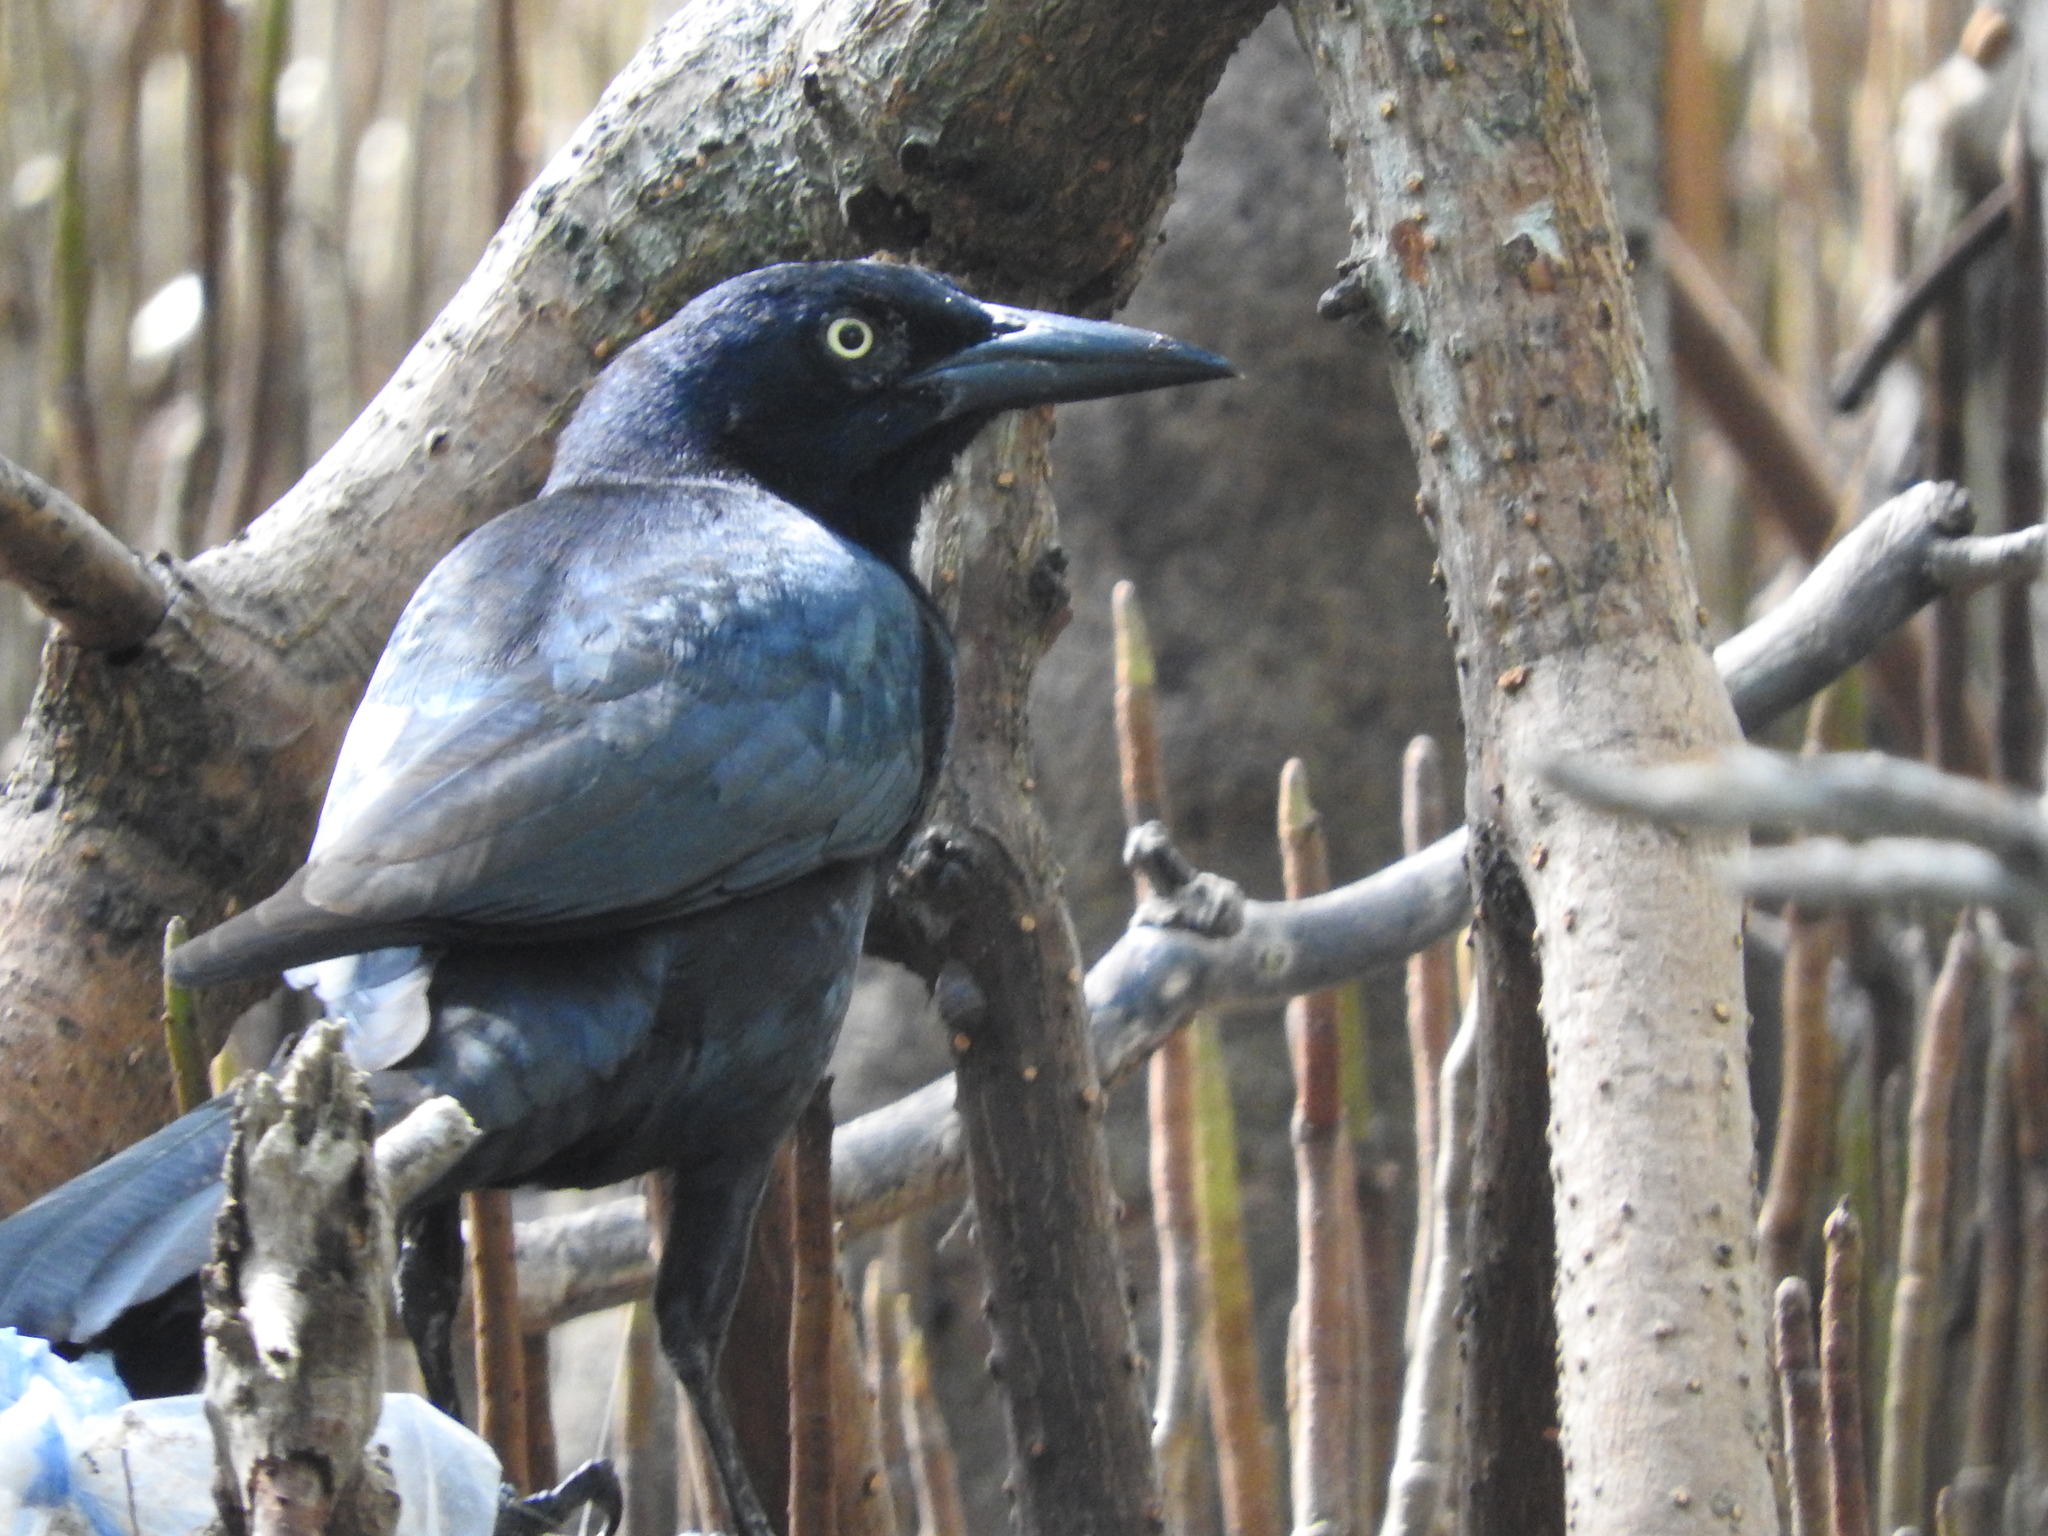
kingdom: Animalia
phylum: Chordata
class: Aves
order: Passeriformes
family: Icteridae
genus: Quiscalus
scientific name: Quiscalus mexicanus
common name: Great-tailed grackle
